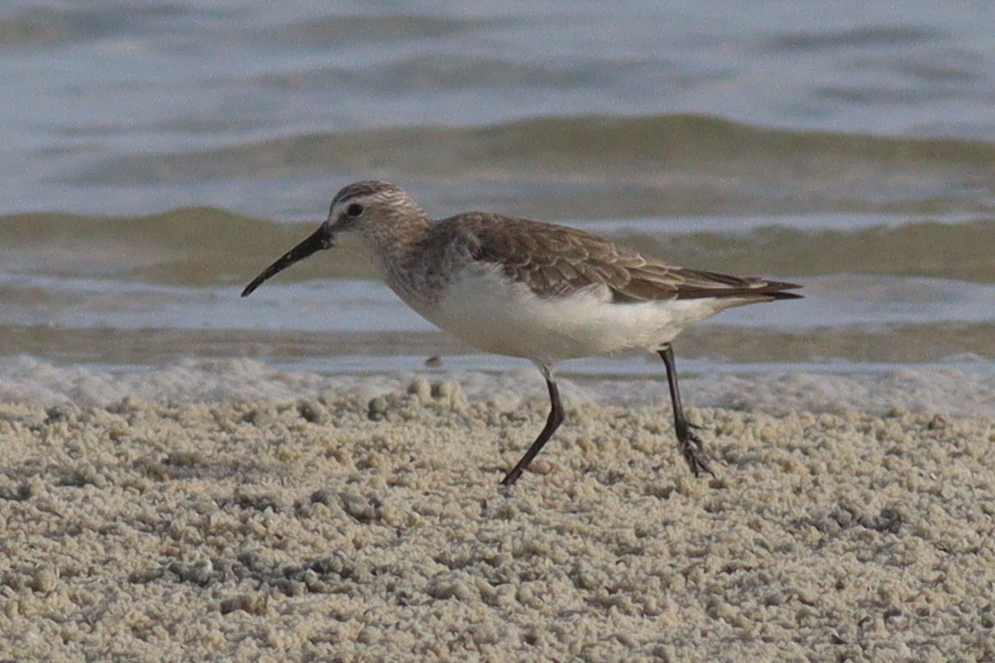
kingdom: Animalia
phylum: Chordata
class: Aves
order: Charadriiformes
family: Scolopacidae
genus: Calidris
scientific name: Calidris ferruginea
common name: Curlew sandpiper
